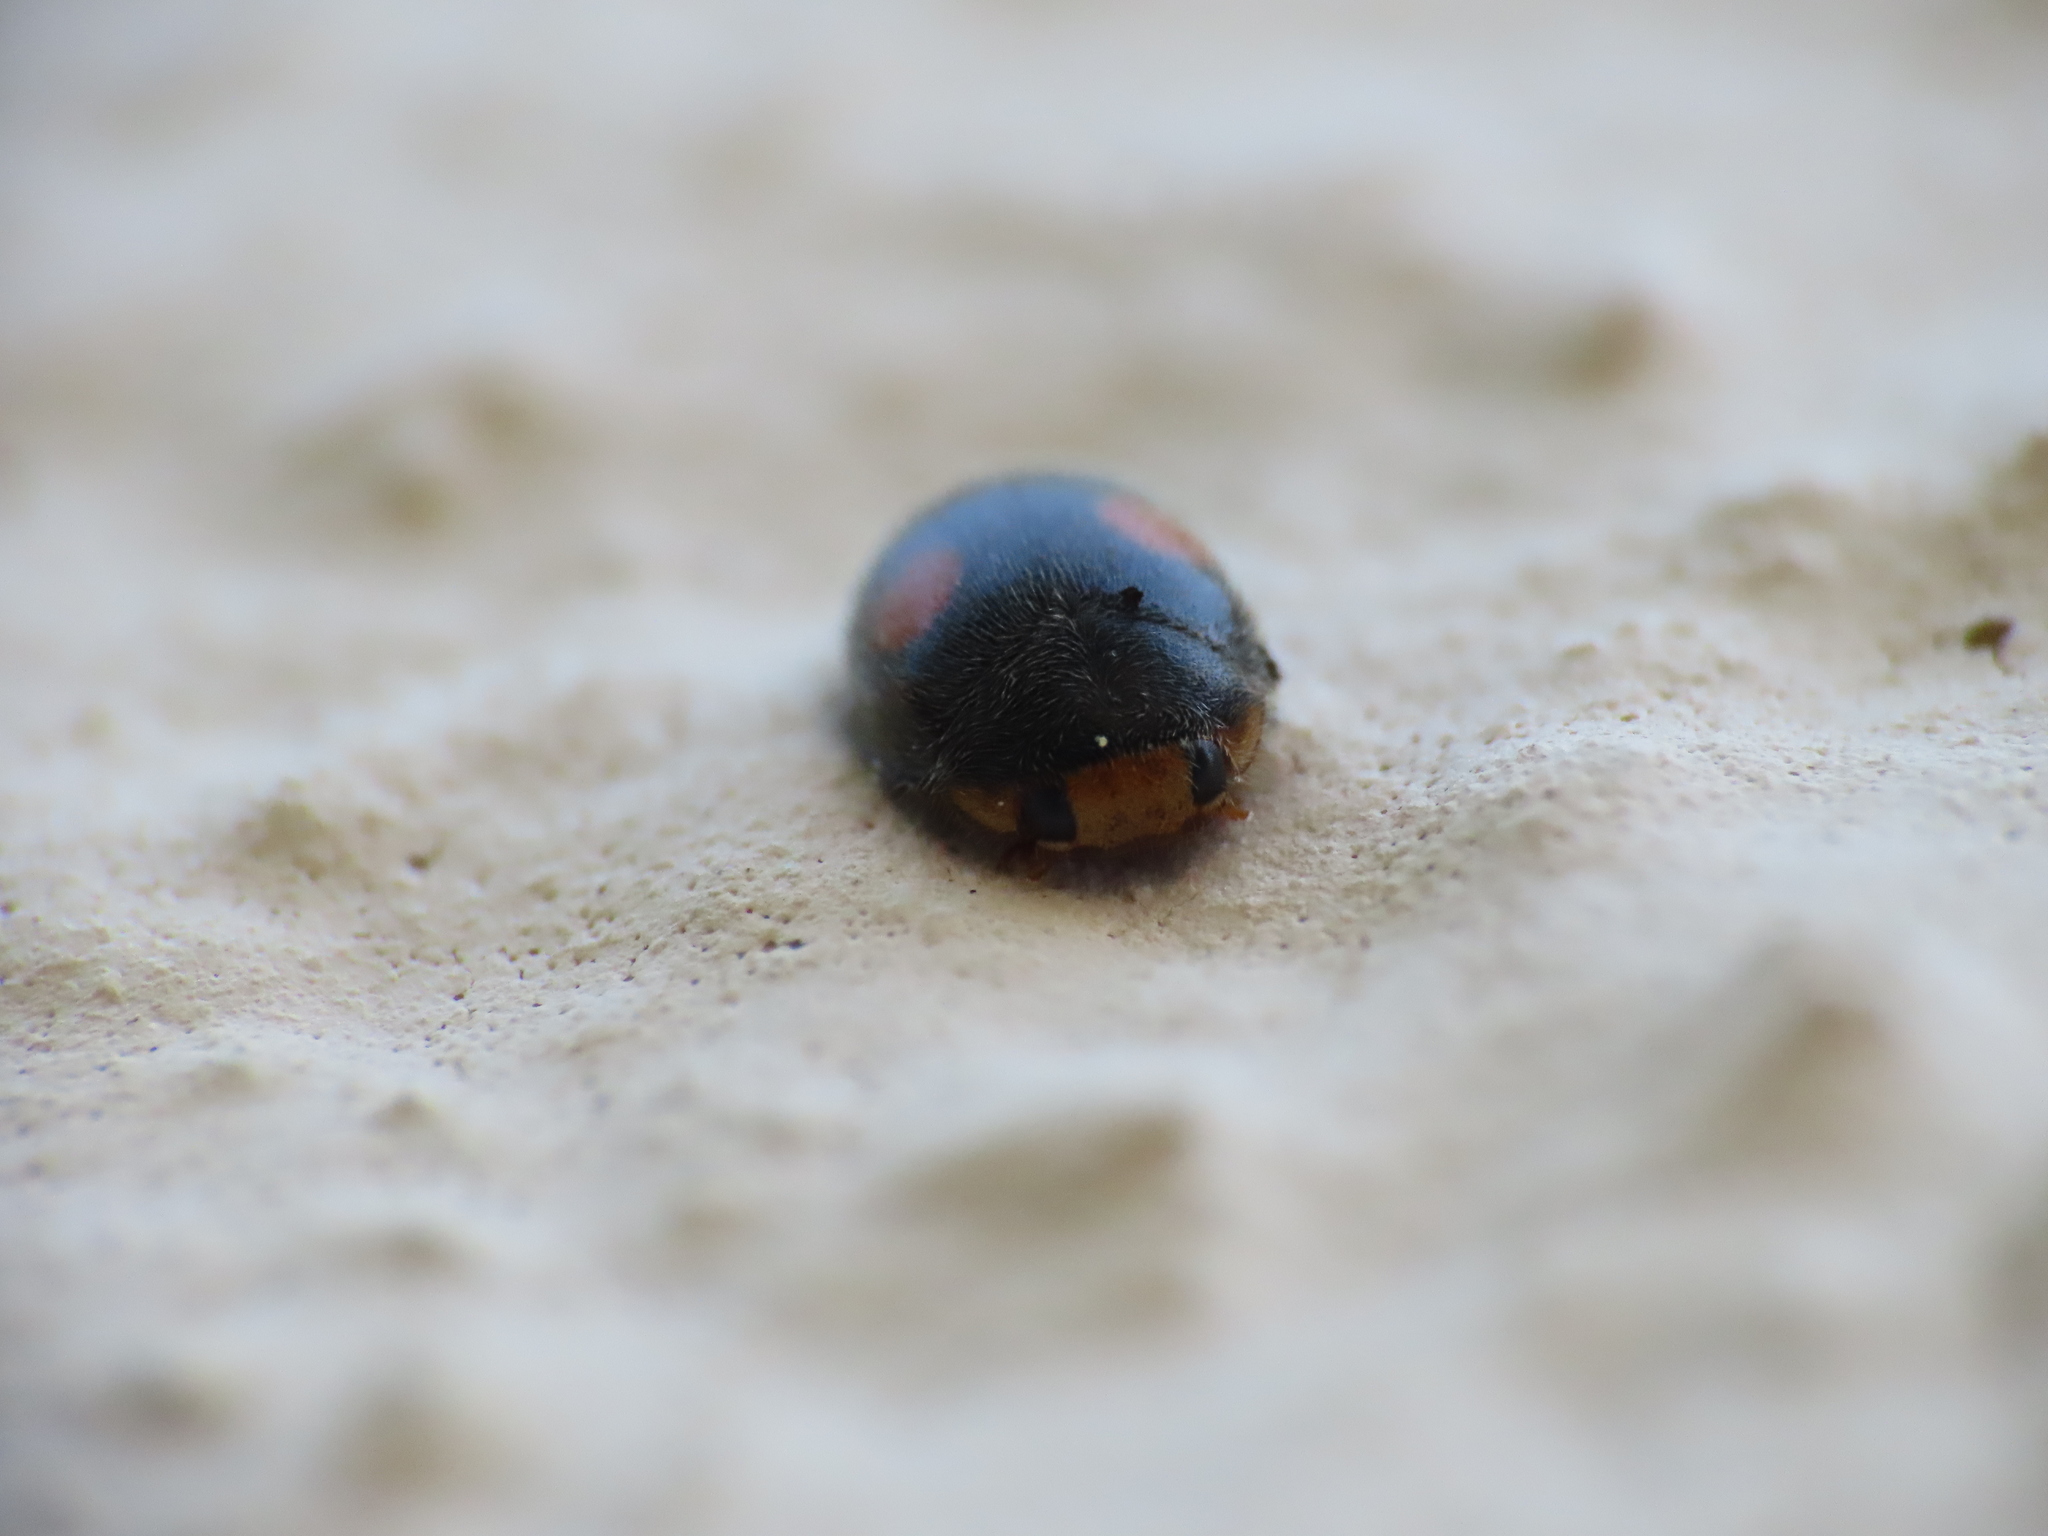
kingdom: Animalia
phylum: Arthropoda
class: Insecta
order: Coleoptera
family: Coccinellidae
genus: Platynaspis
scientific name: Platynaspis luteorubra
